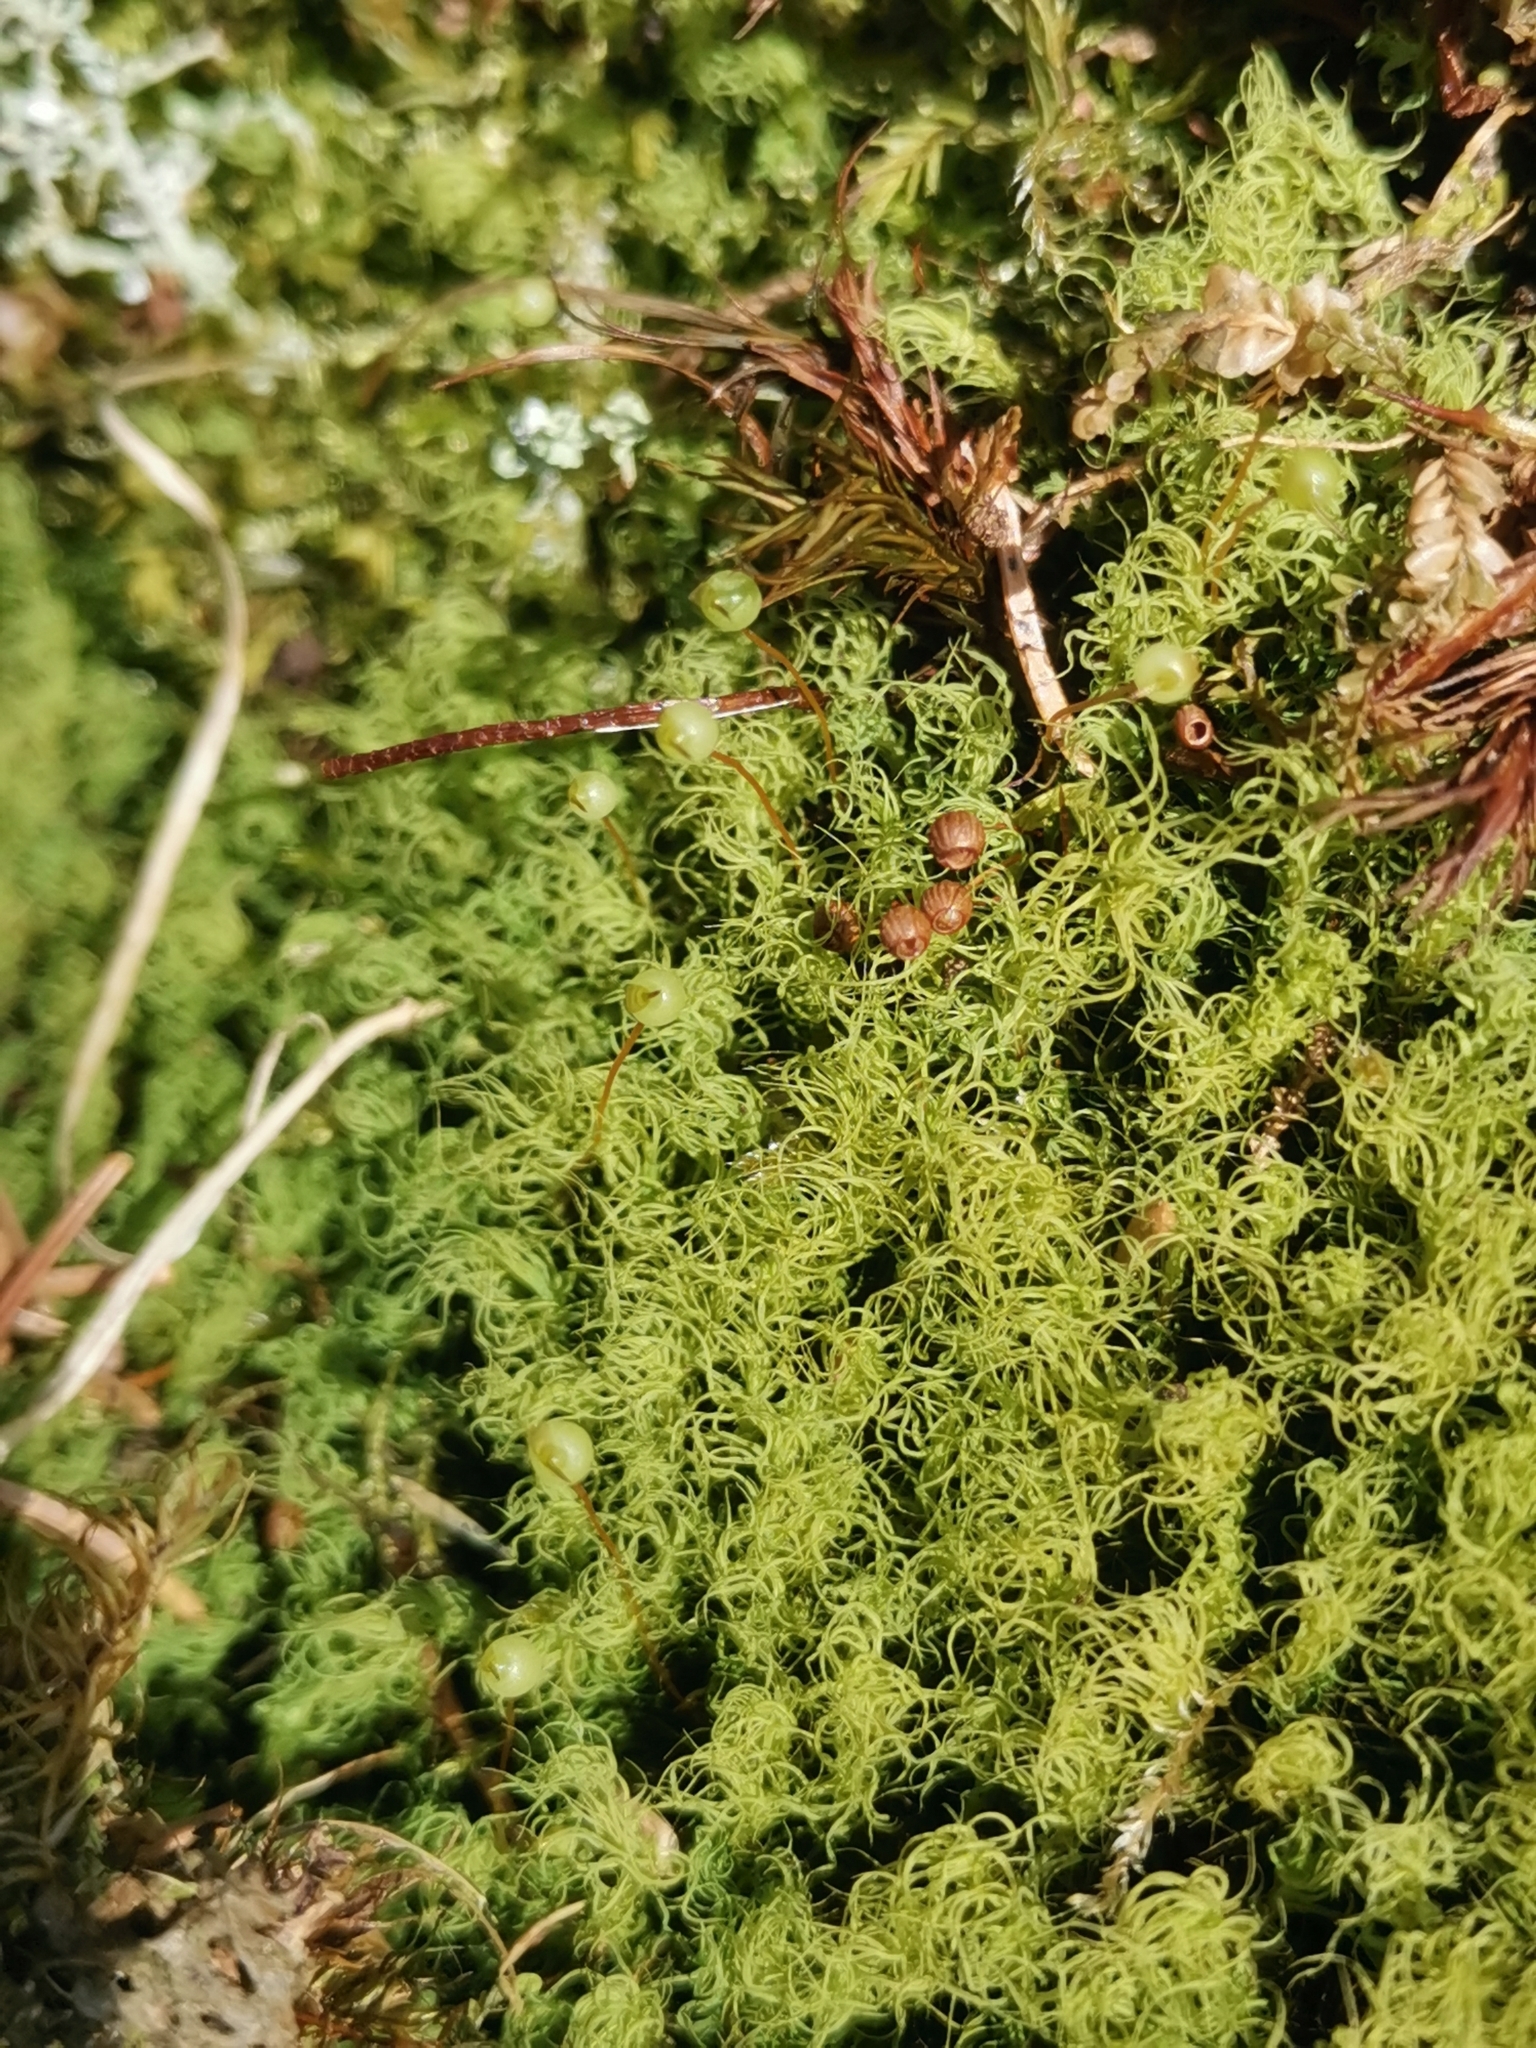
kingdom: Plantae
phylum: Bryophyta
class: Bryopsida
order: Bartramiales
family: Bartramiaceae
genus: Bartramia
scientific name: Bartramia ithyphylla
